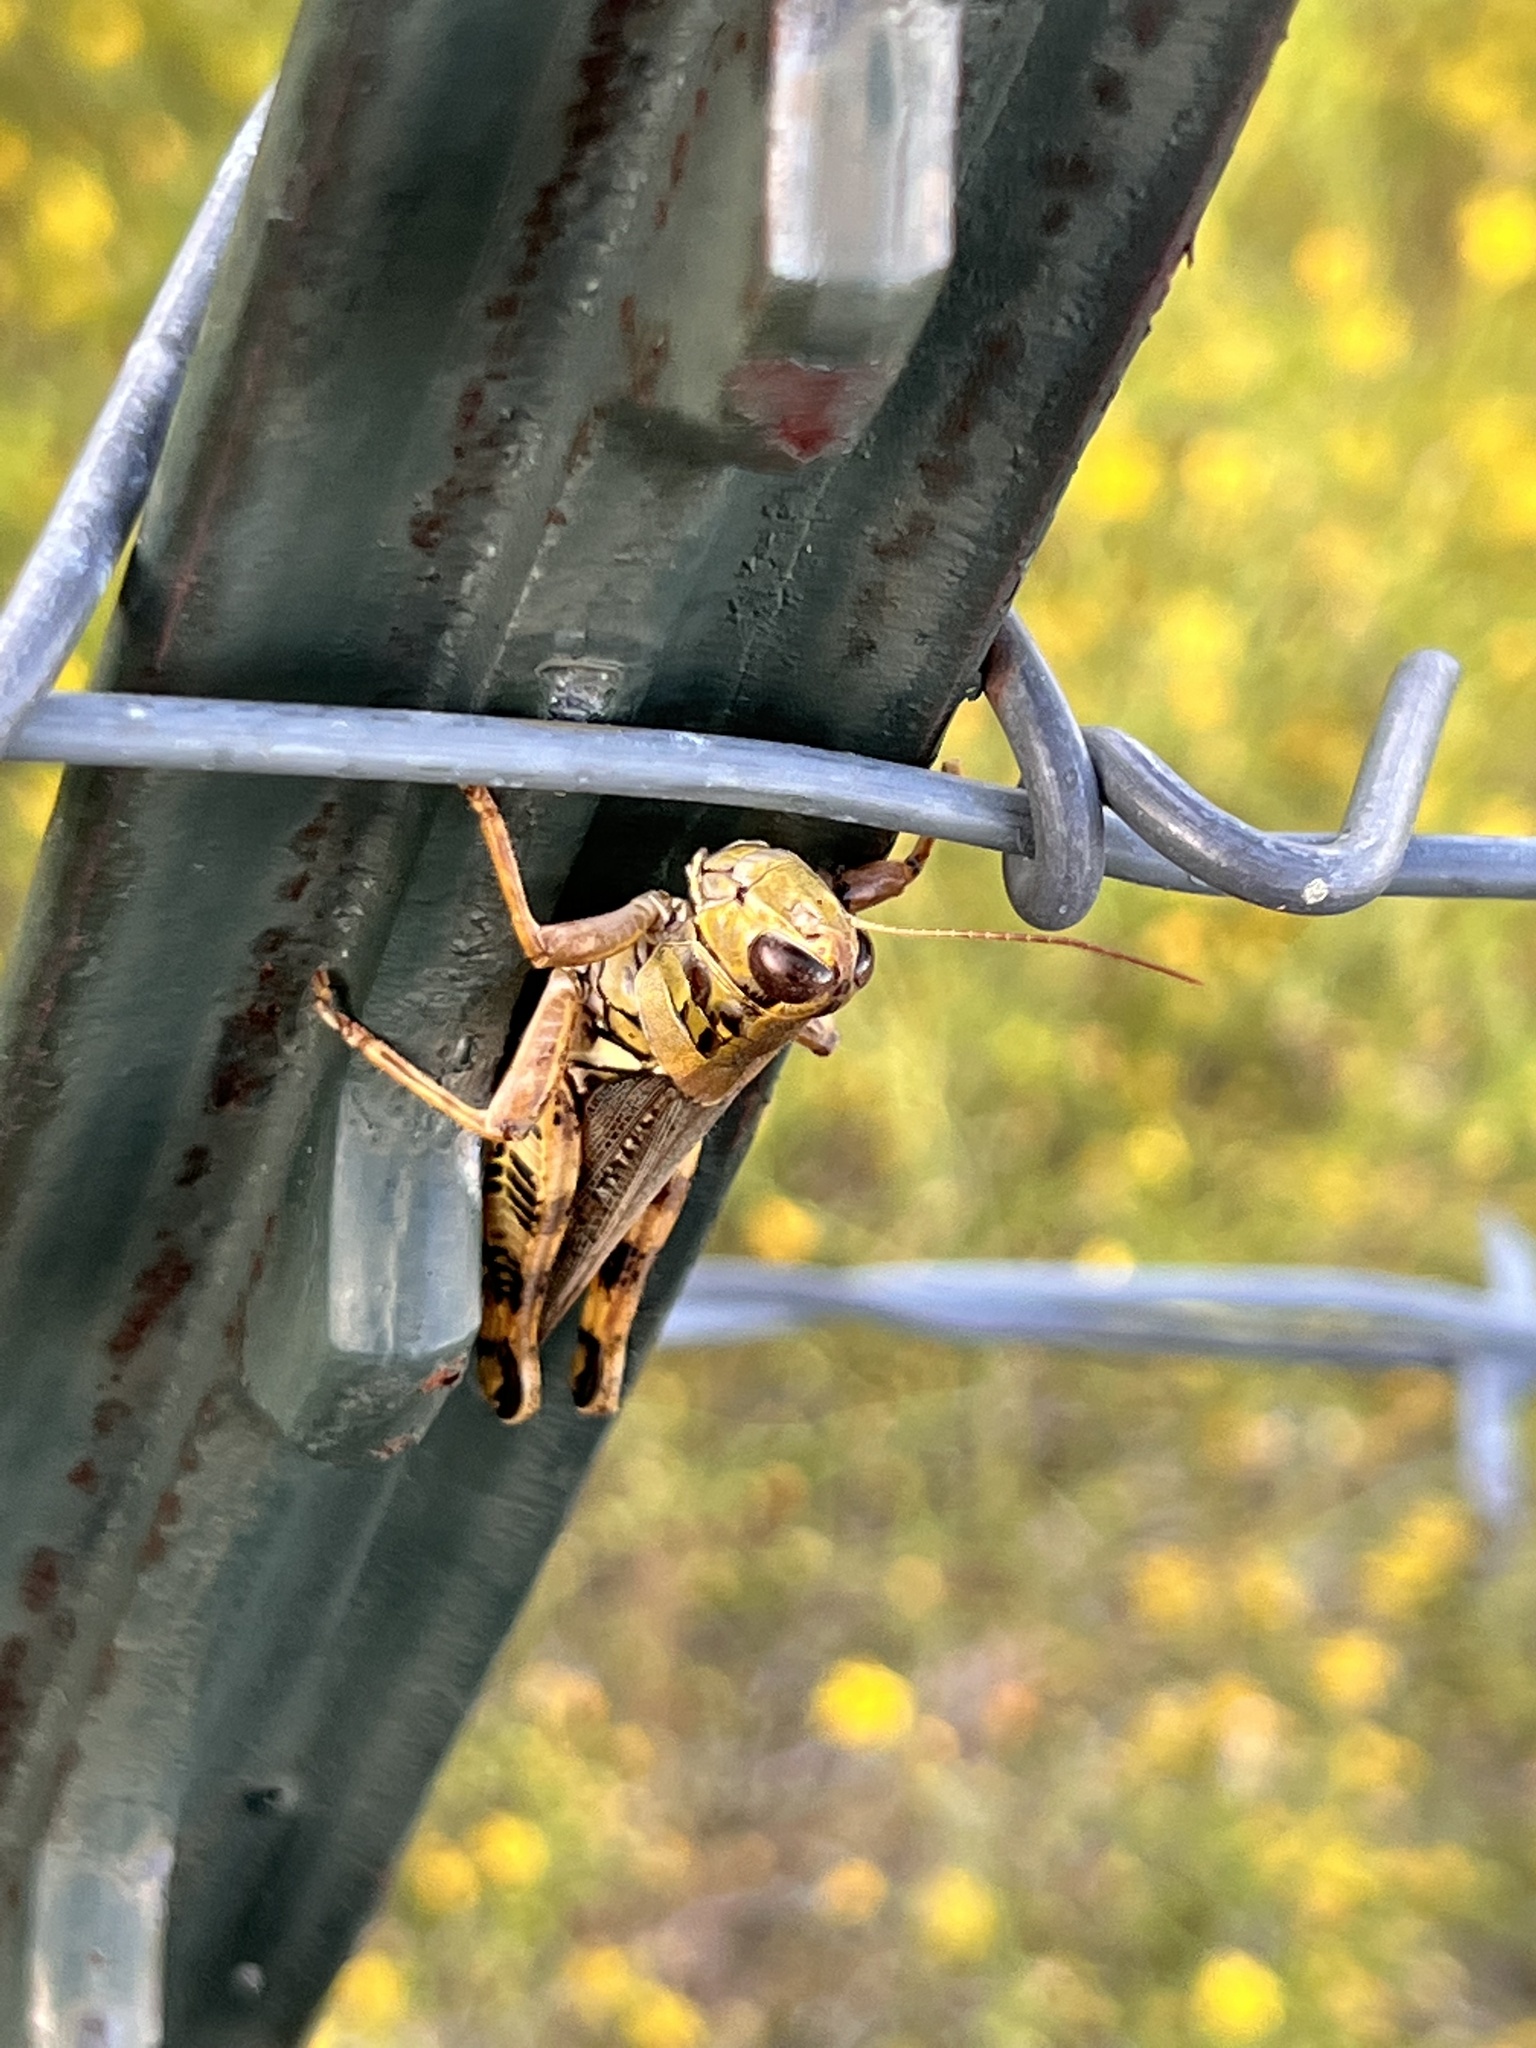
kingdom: Animalia
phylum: Arthropoda
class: Insecta
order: Orthoptera
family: Acrididae
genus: Melanoplus
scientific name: Melanoplus ponderosus
